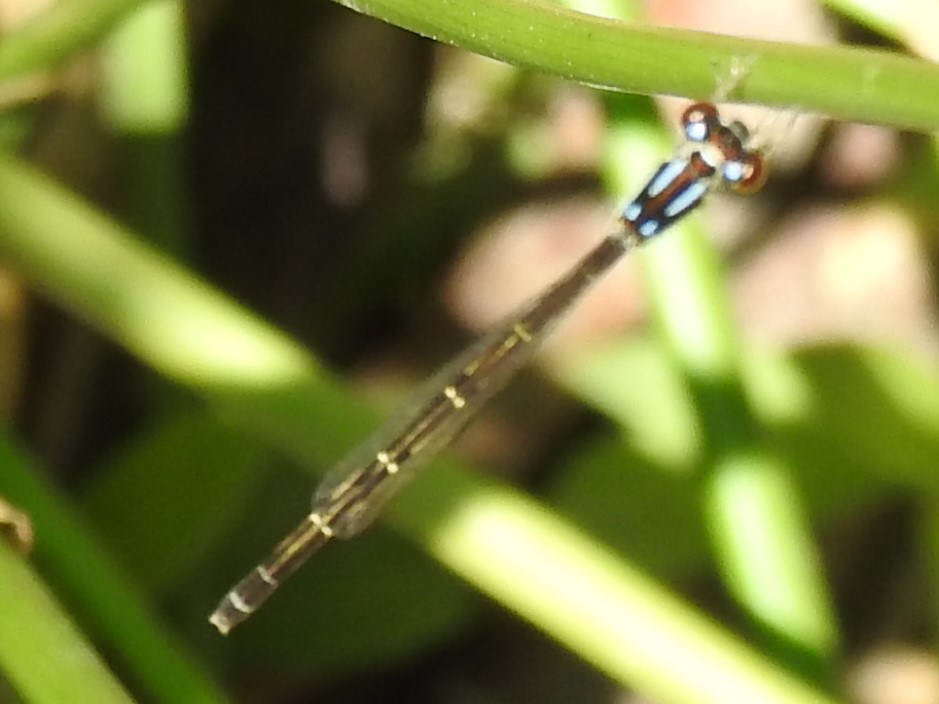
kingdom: Animalia
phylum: Arthropoda
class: Insecta
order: Odonata
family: Coenagrionidae
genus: Ischnura
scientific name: Ischnura posita
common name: Fragile forktail
